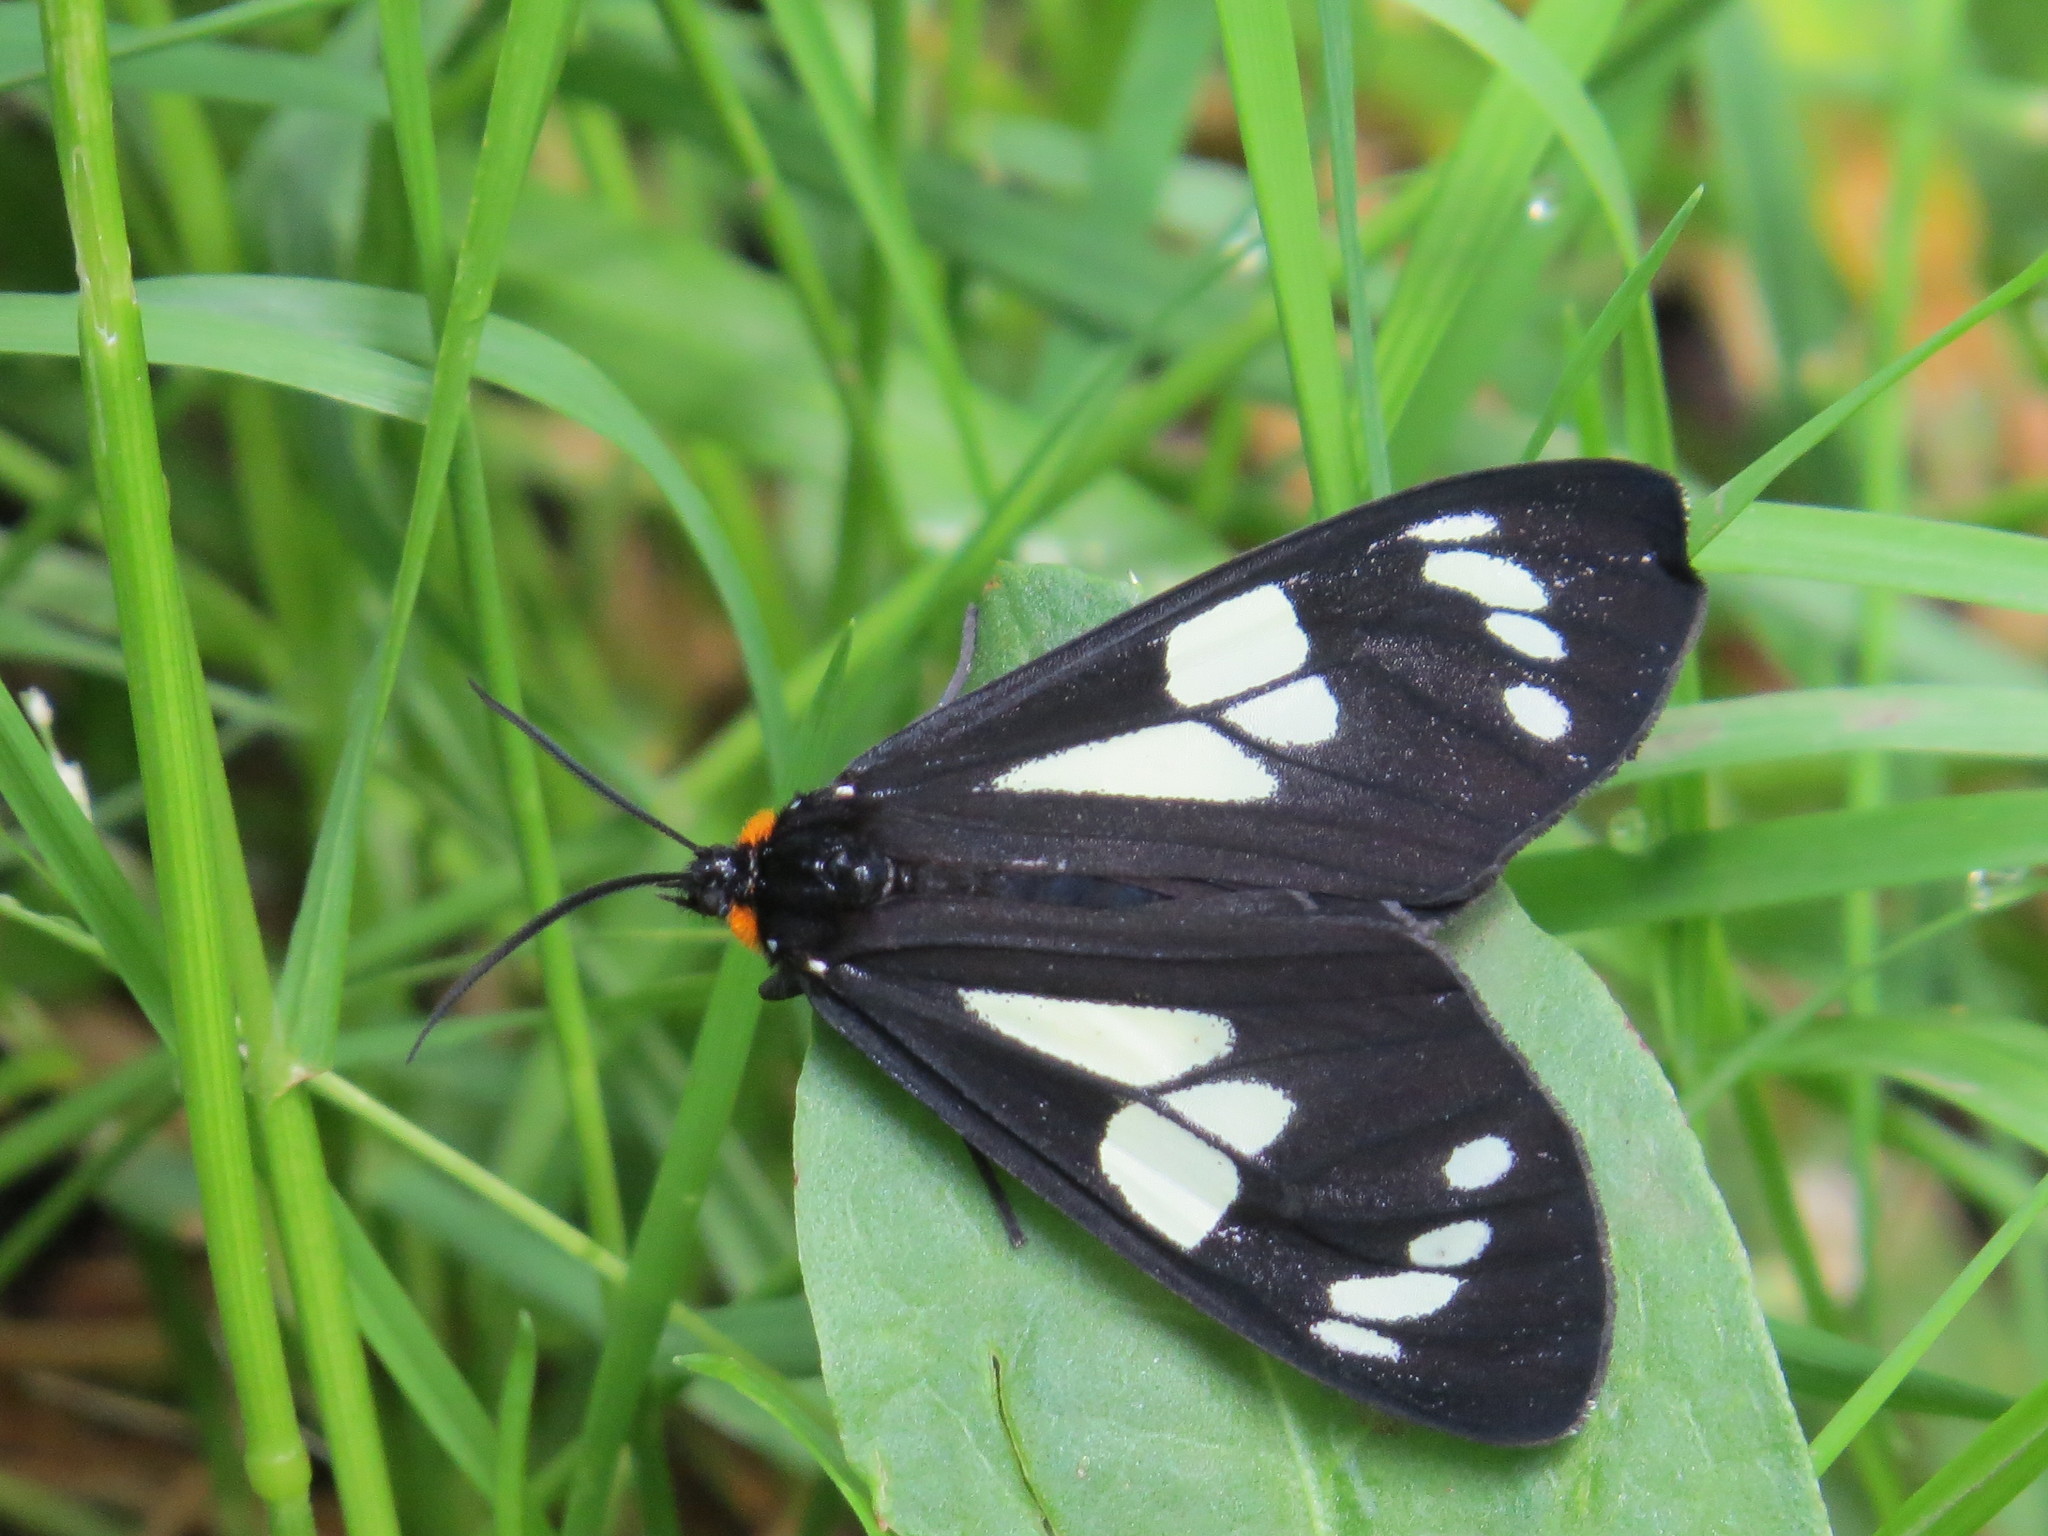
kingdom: Animalia
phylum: Arthropoda
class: Insecta
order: Lepidoptera
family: Erebidae
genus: Gnophaela
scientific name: Gnophaela latipennis
